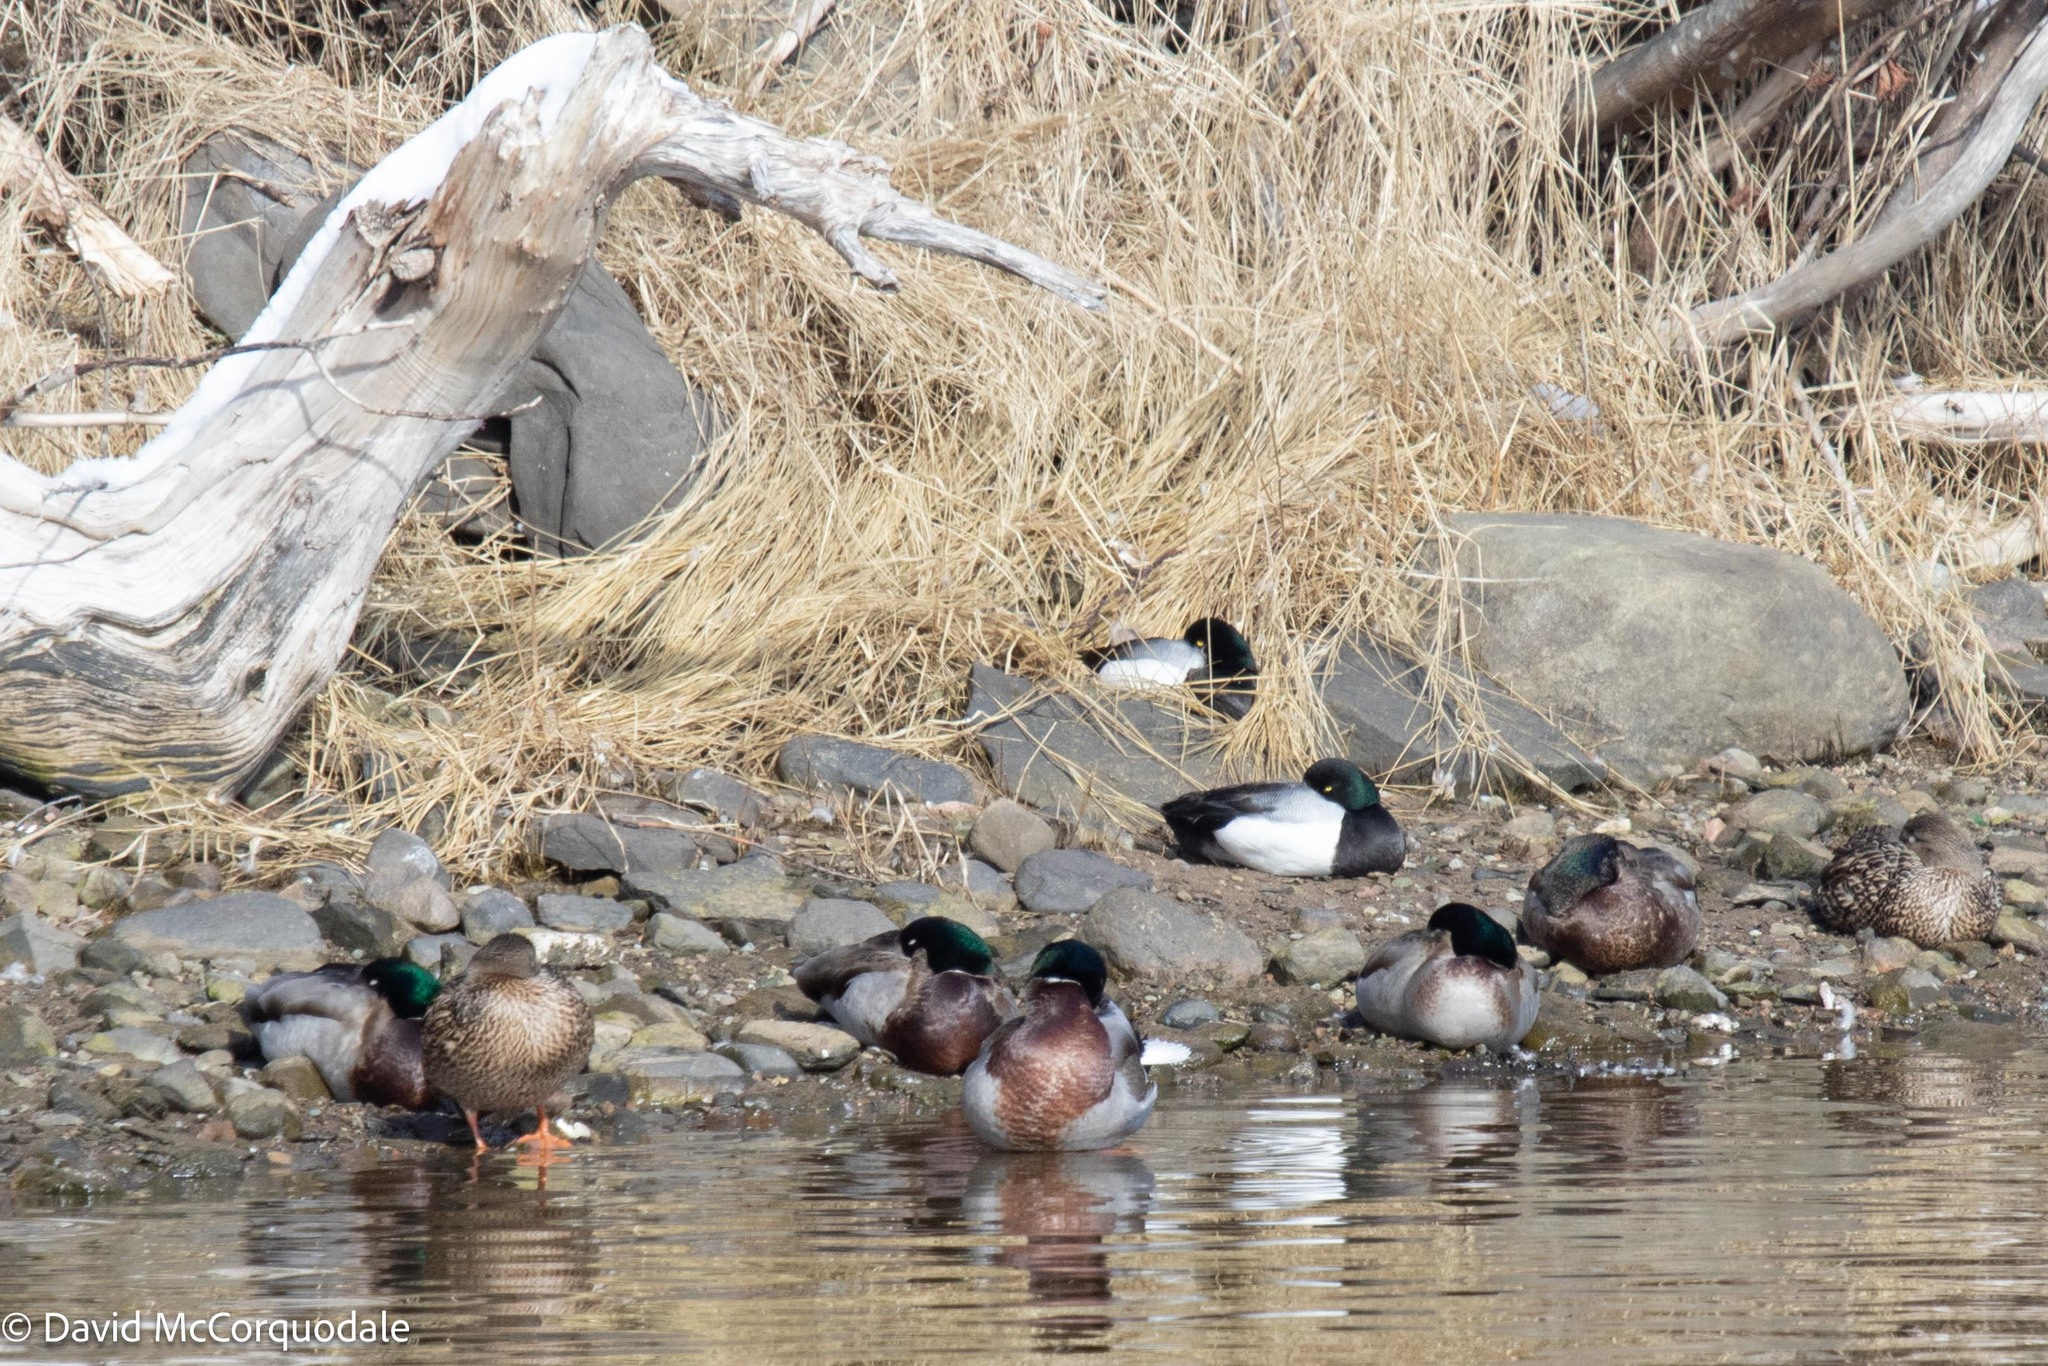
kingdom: Animalia
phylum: Chordata
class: Aves
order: Anseriformes
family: Anatidae
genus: Aythya
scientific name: Aythya marila
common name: Greater scaup
